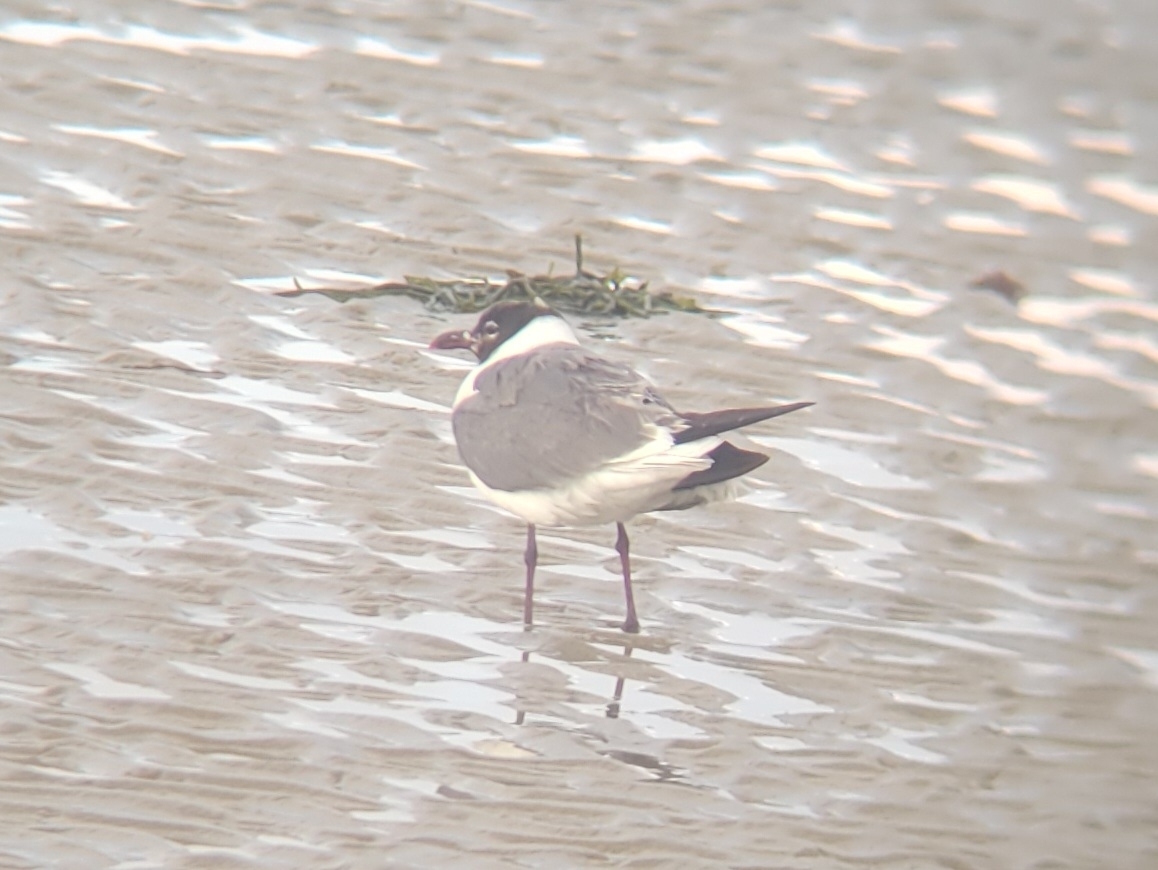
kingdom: Animalia
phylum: Chordata
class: Aves
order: Charadriiformes
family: Laridae
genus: Leucophaeus
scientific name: Leucophaeus atricilla
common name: Laughing gull
